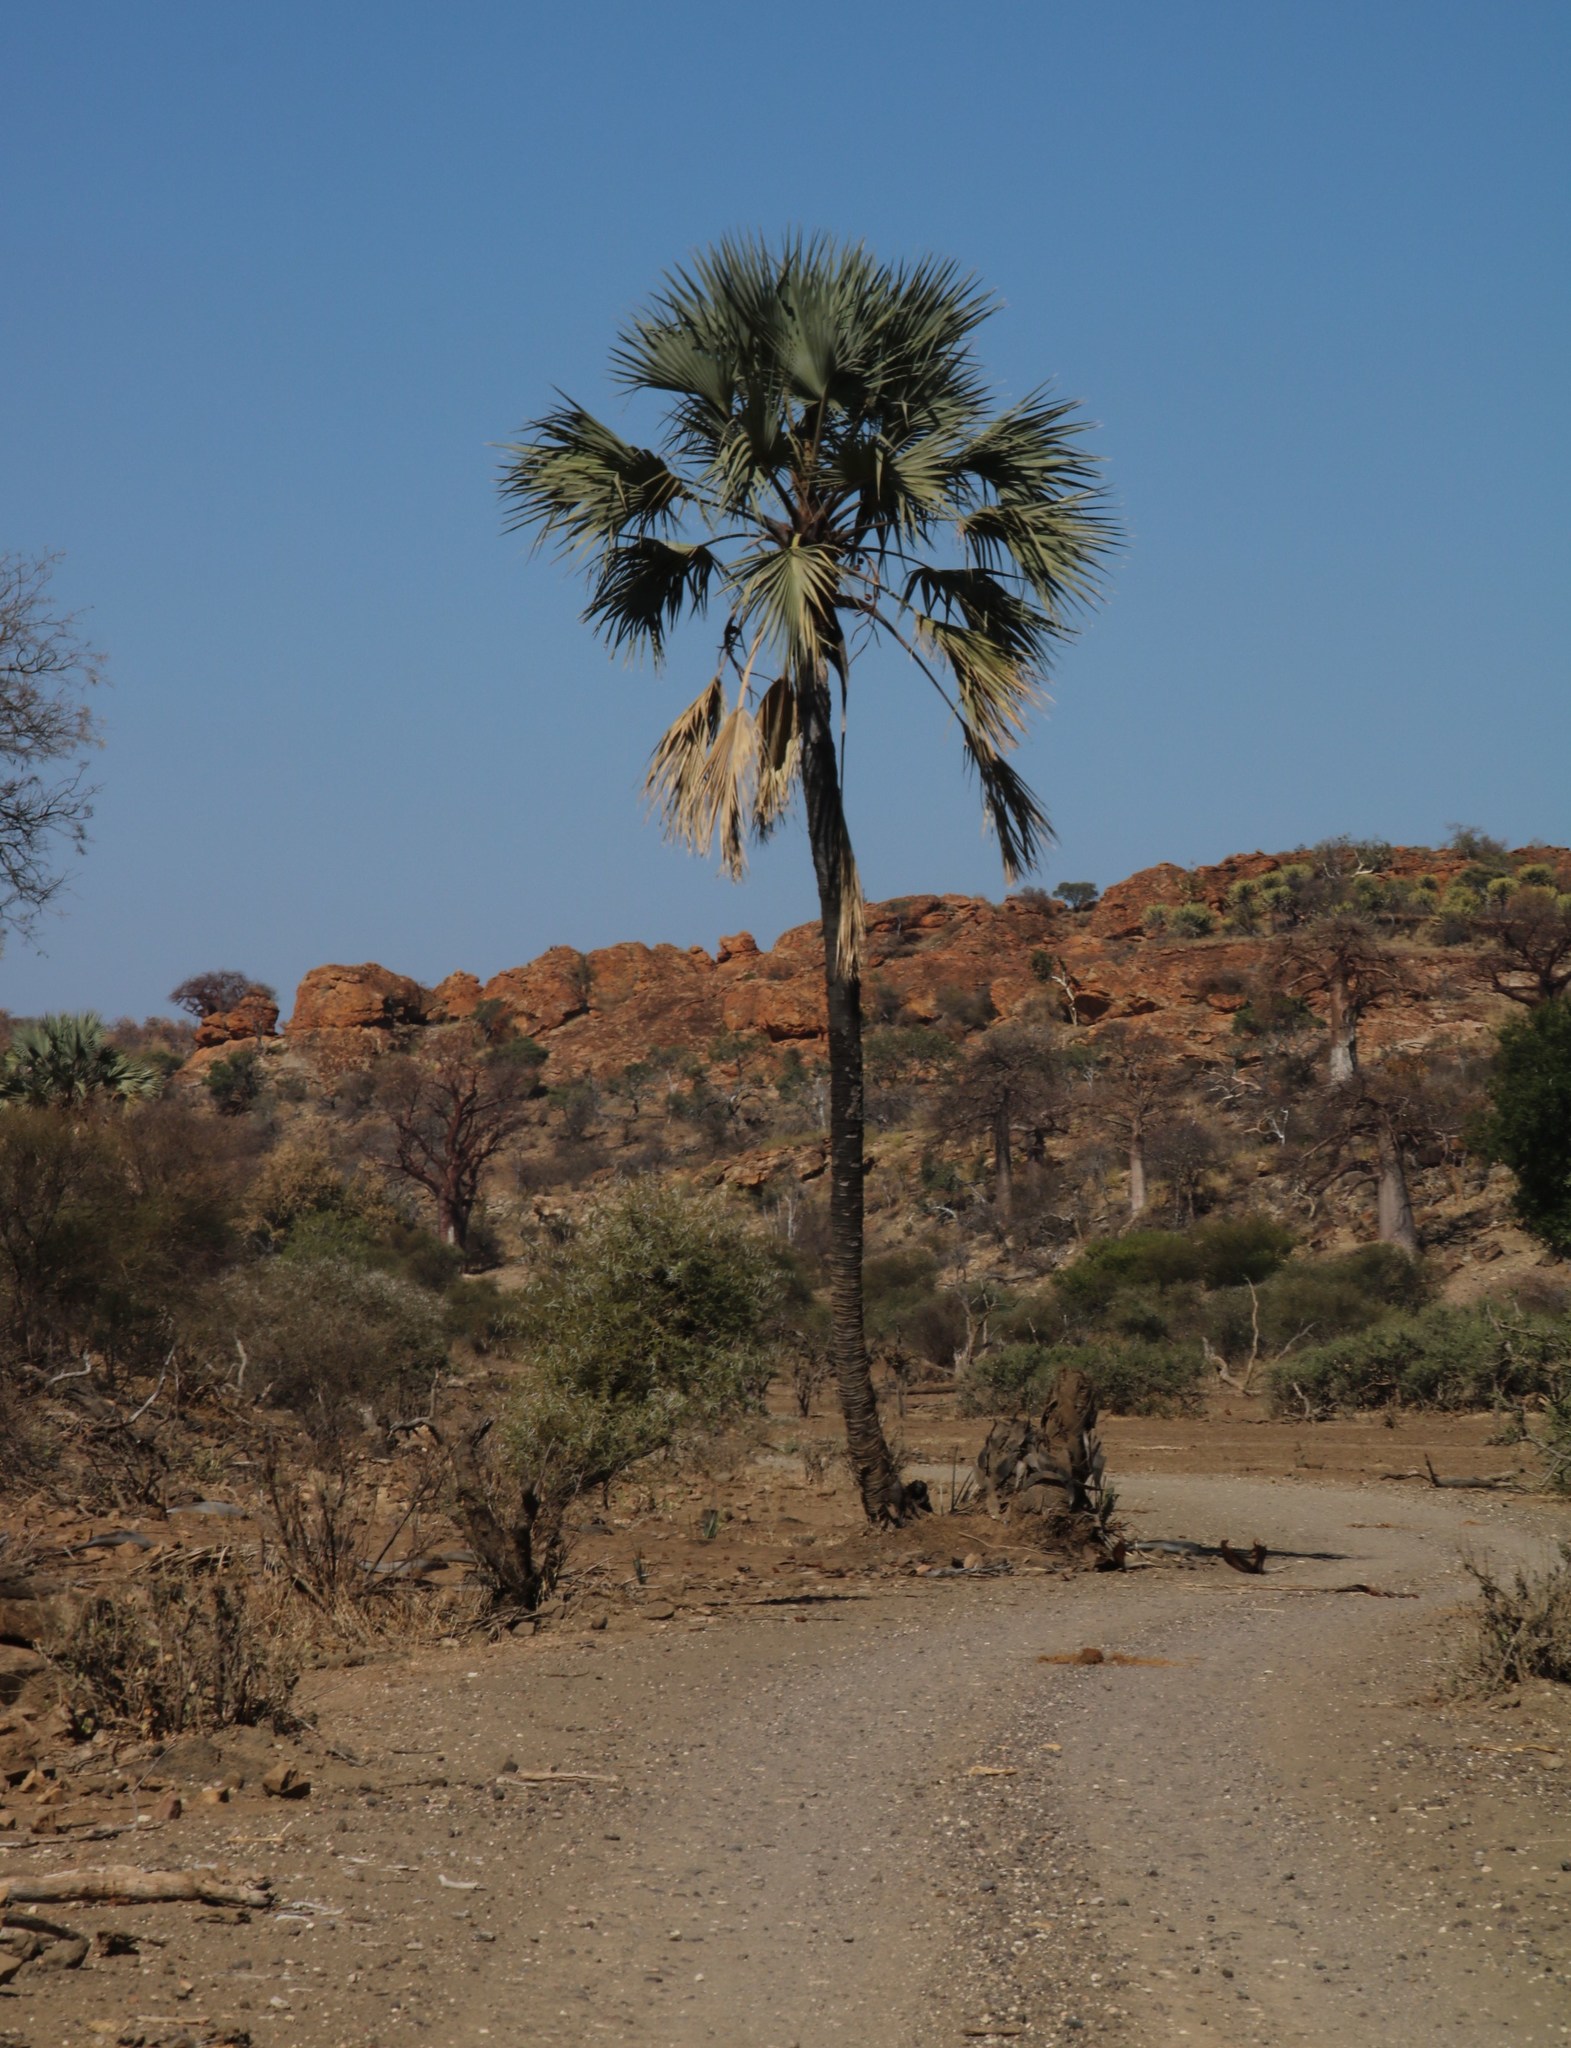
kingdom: Plantae
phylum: Tracheophyta
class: Liliopsida
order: Arecales
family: Arecaceae
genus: Hyphaene
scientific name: Hyphaene petersiana
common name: African ivory nut palm
